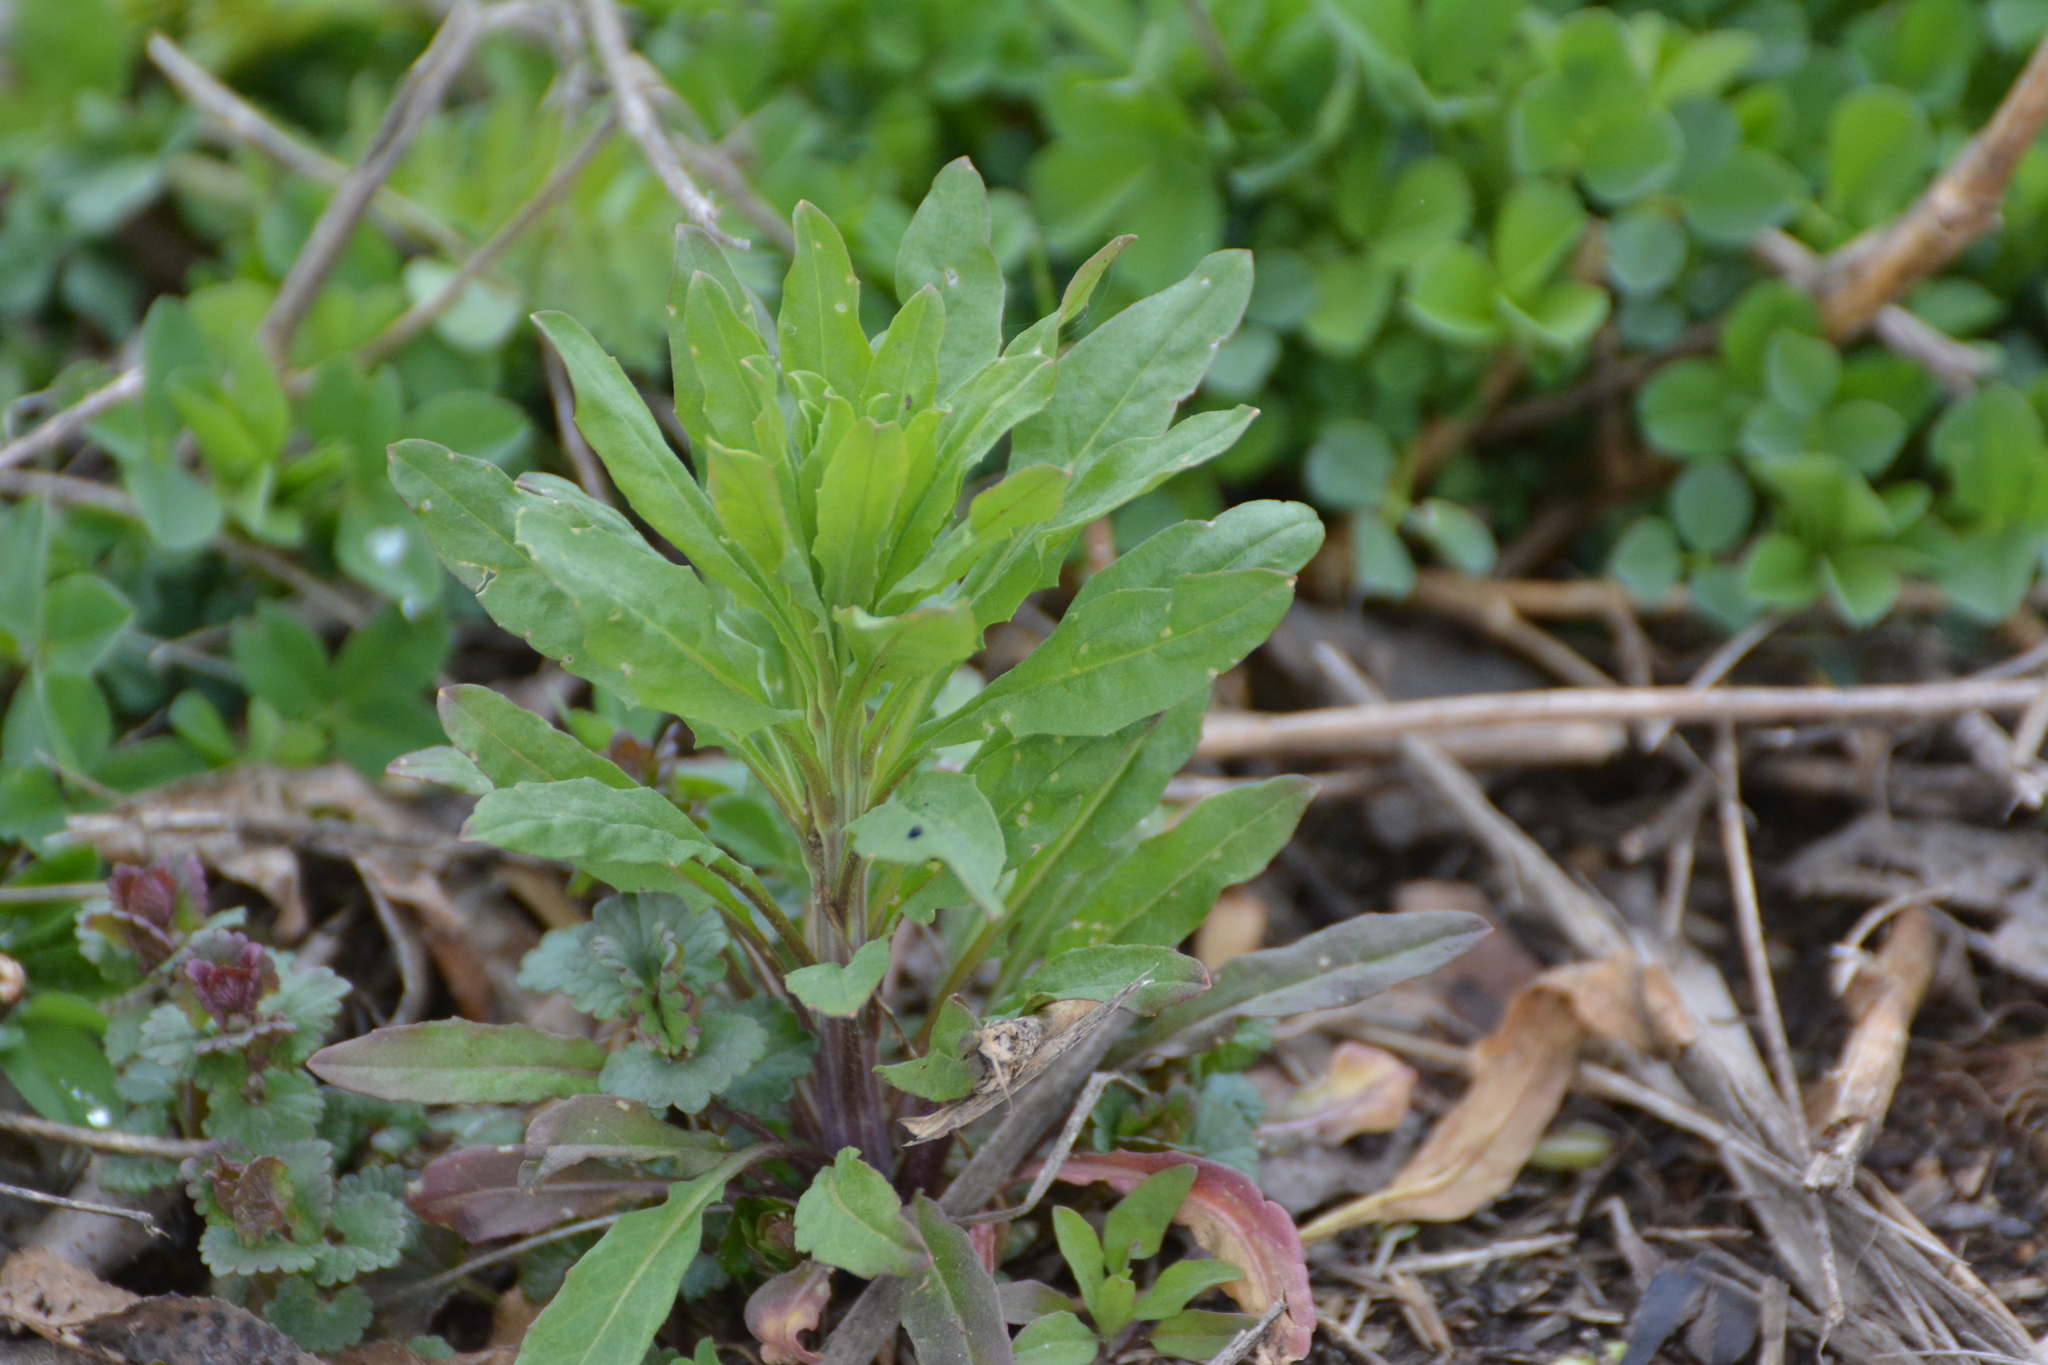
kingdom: Plantae
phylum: Tracheophyta
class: Magnoliopsida
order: Brassicales
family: Brassicaceae
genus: Erysimum
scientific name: Erysimum hieraciifolium
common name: European wallflower
